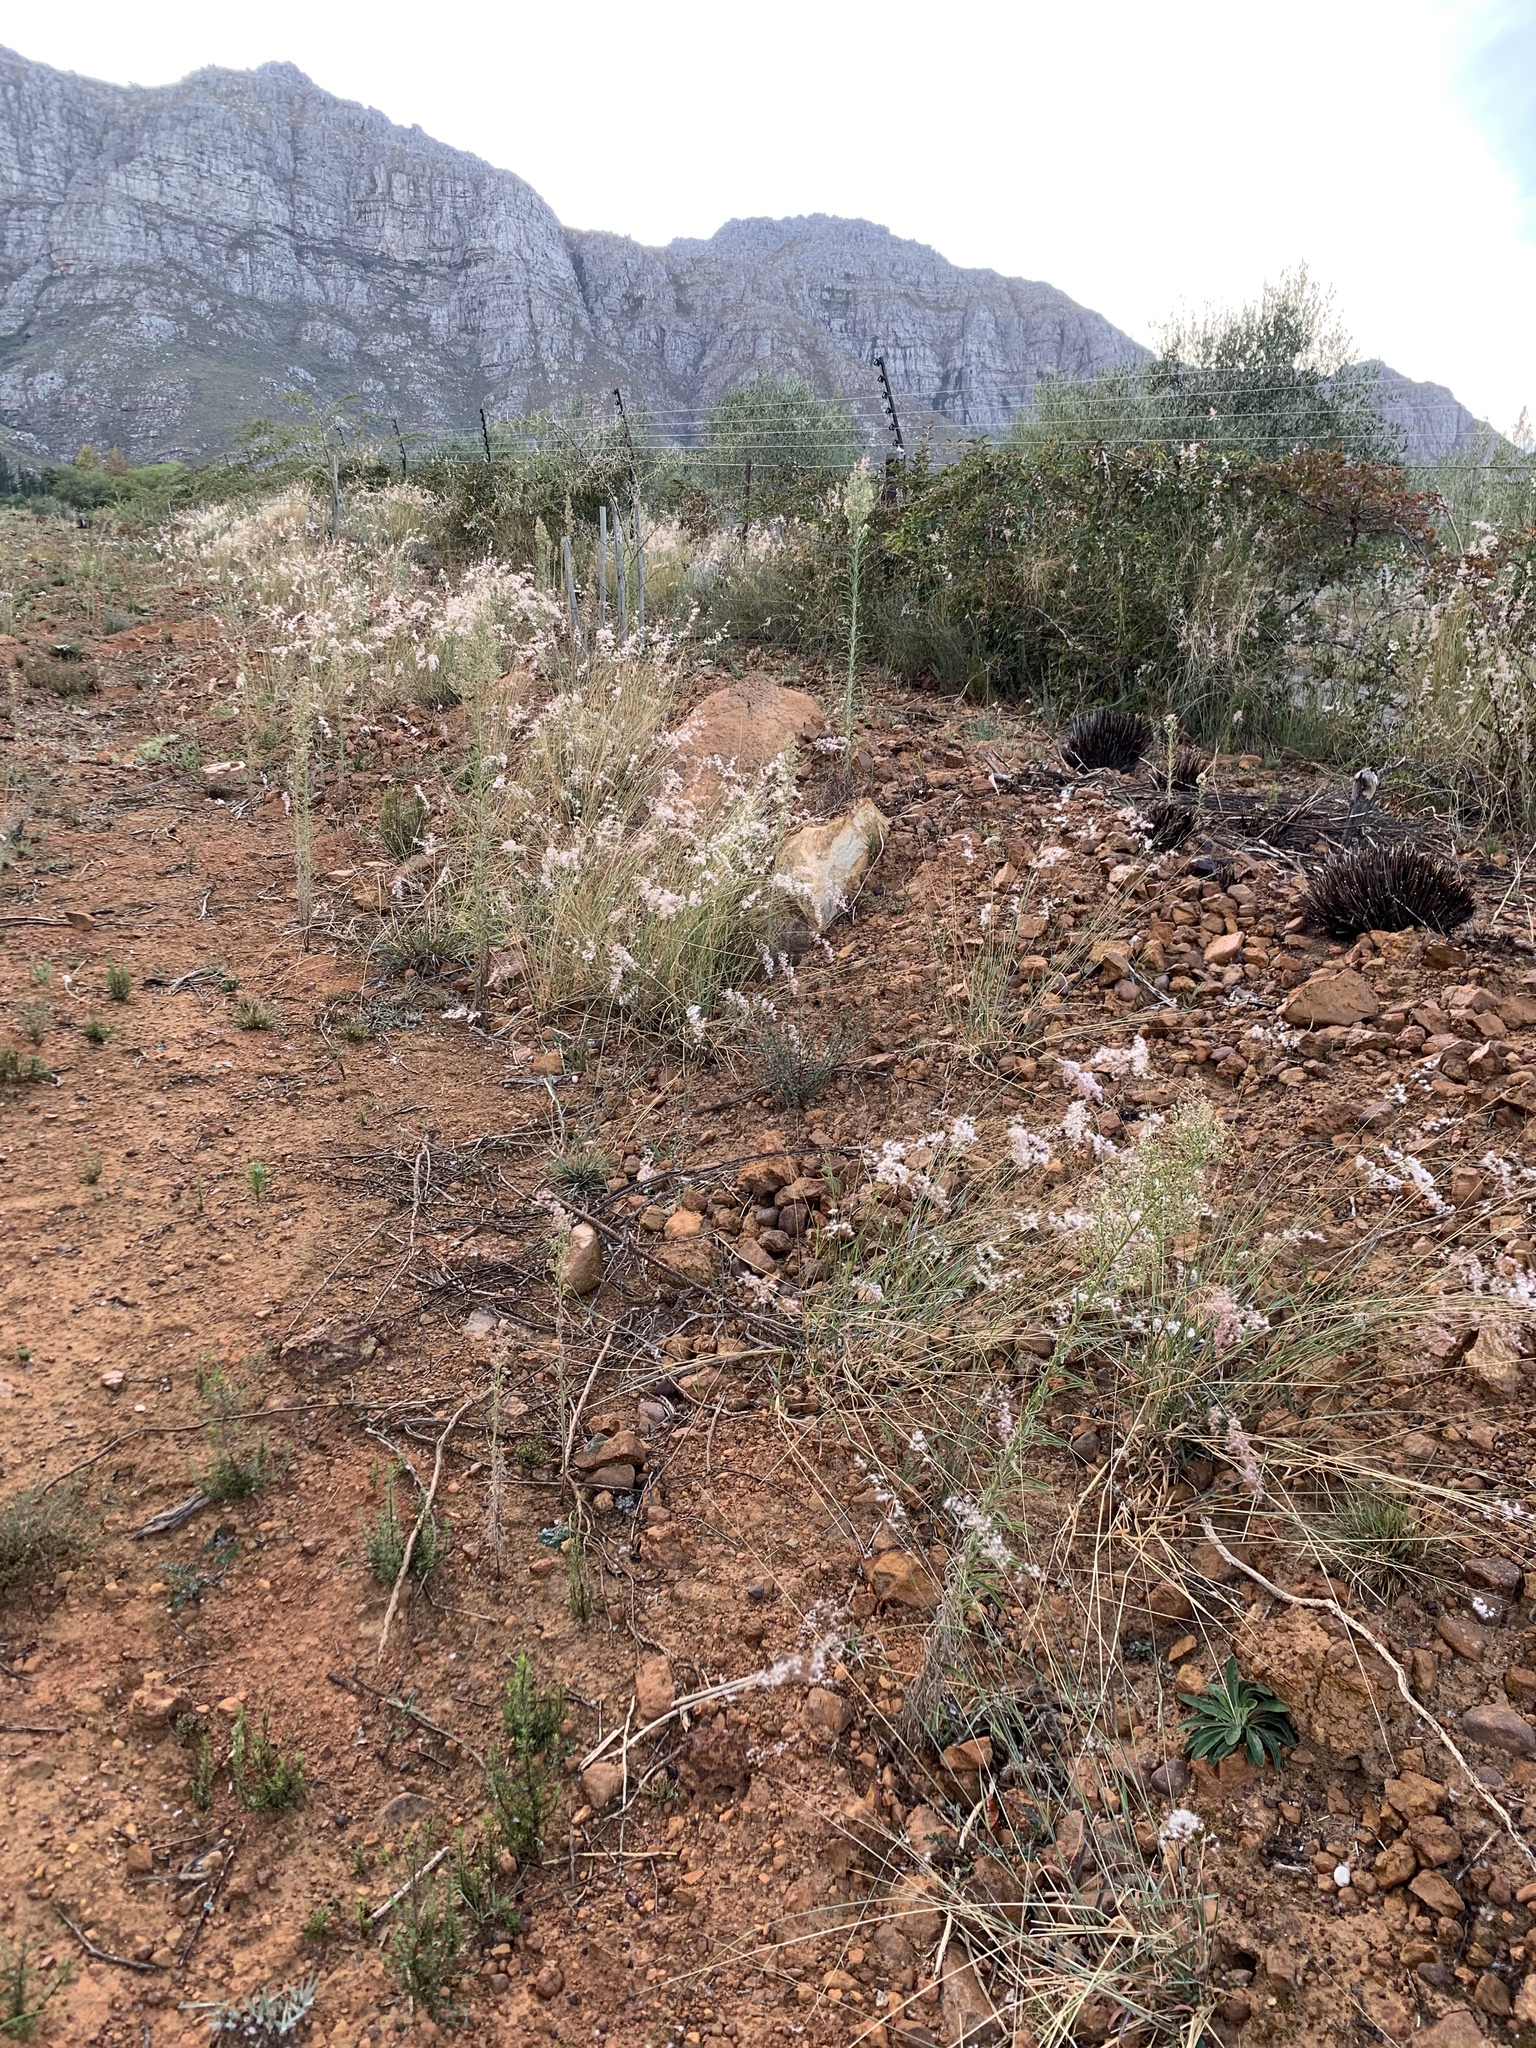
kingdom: Plantae
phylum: Tracheophyta
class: Liliopsida
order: Poales
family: Poaceae
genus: Melinis
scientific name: Melinis repens
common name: Rose natal grass
